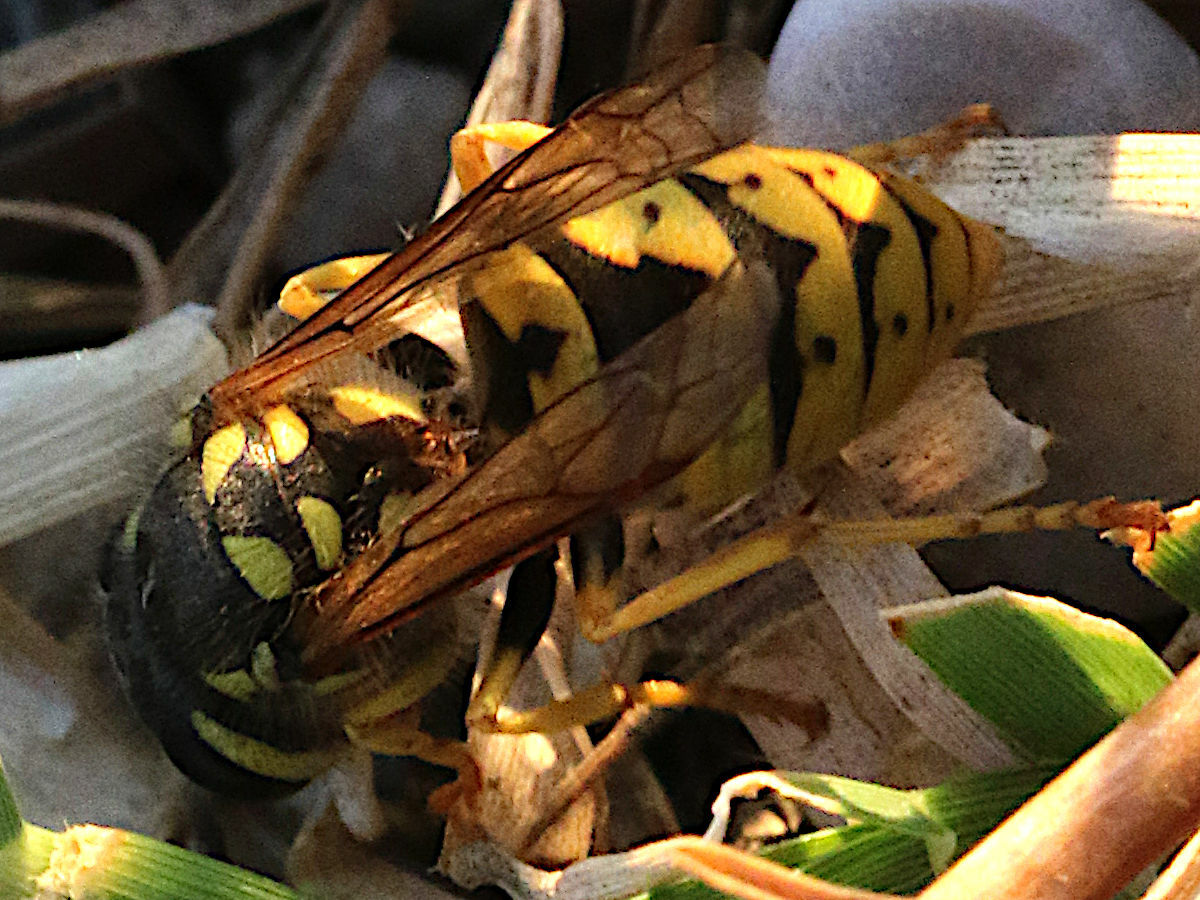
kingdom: Animalia
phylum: Arthropoda
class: Insecta
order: Hymenoptera
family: Vespidae
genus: Vespula
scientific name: Vespula germanica
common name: German wasp
